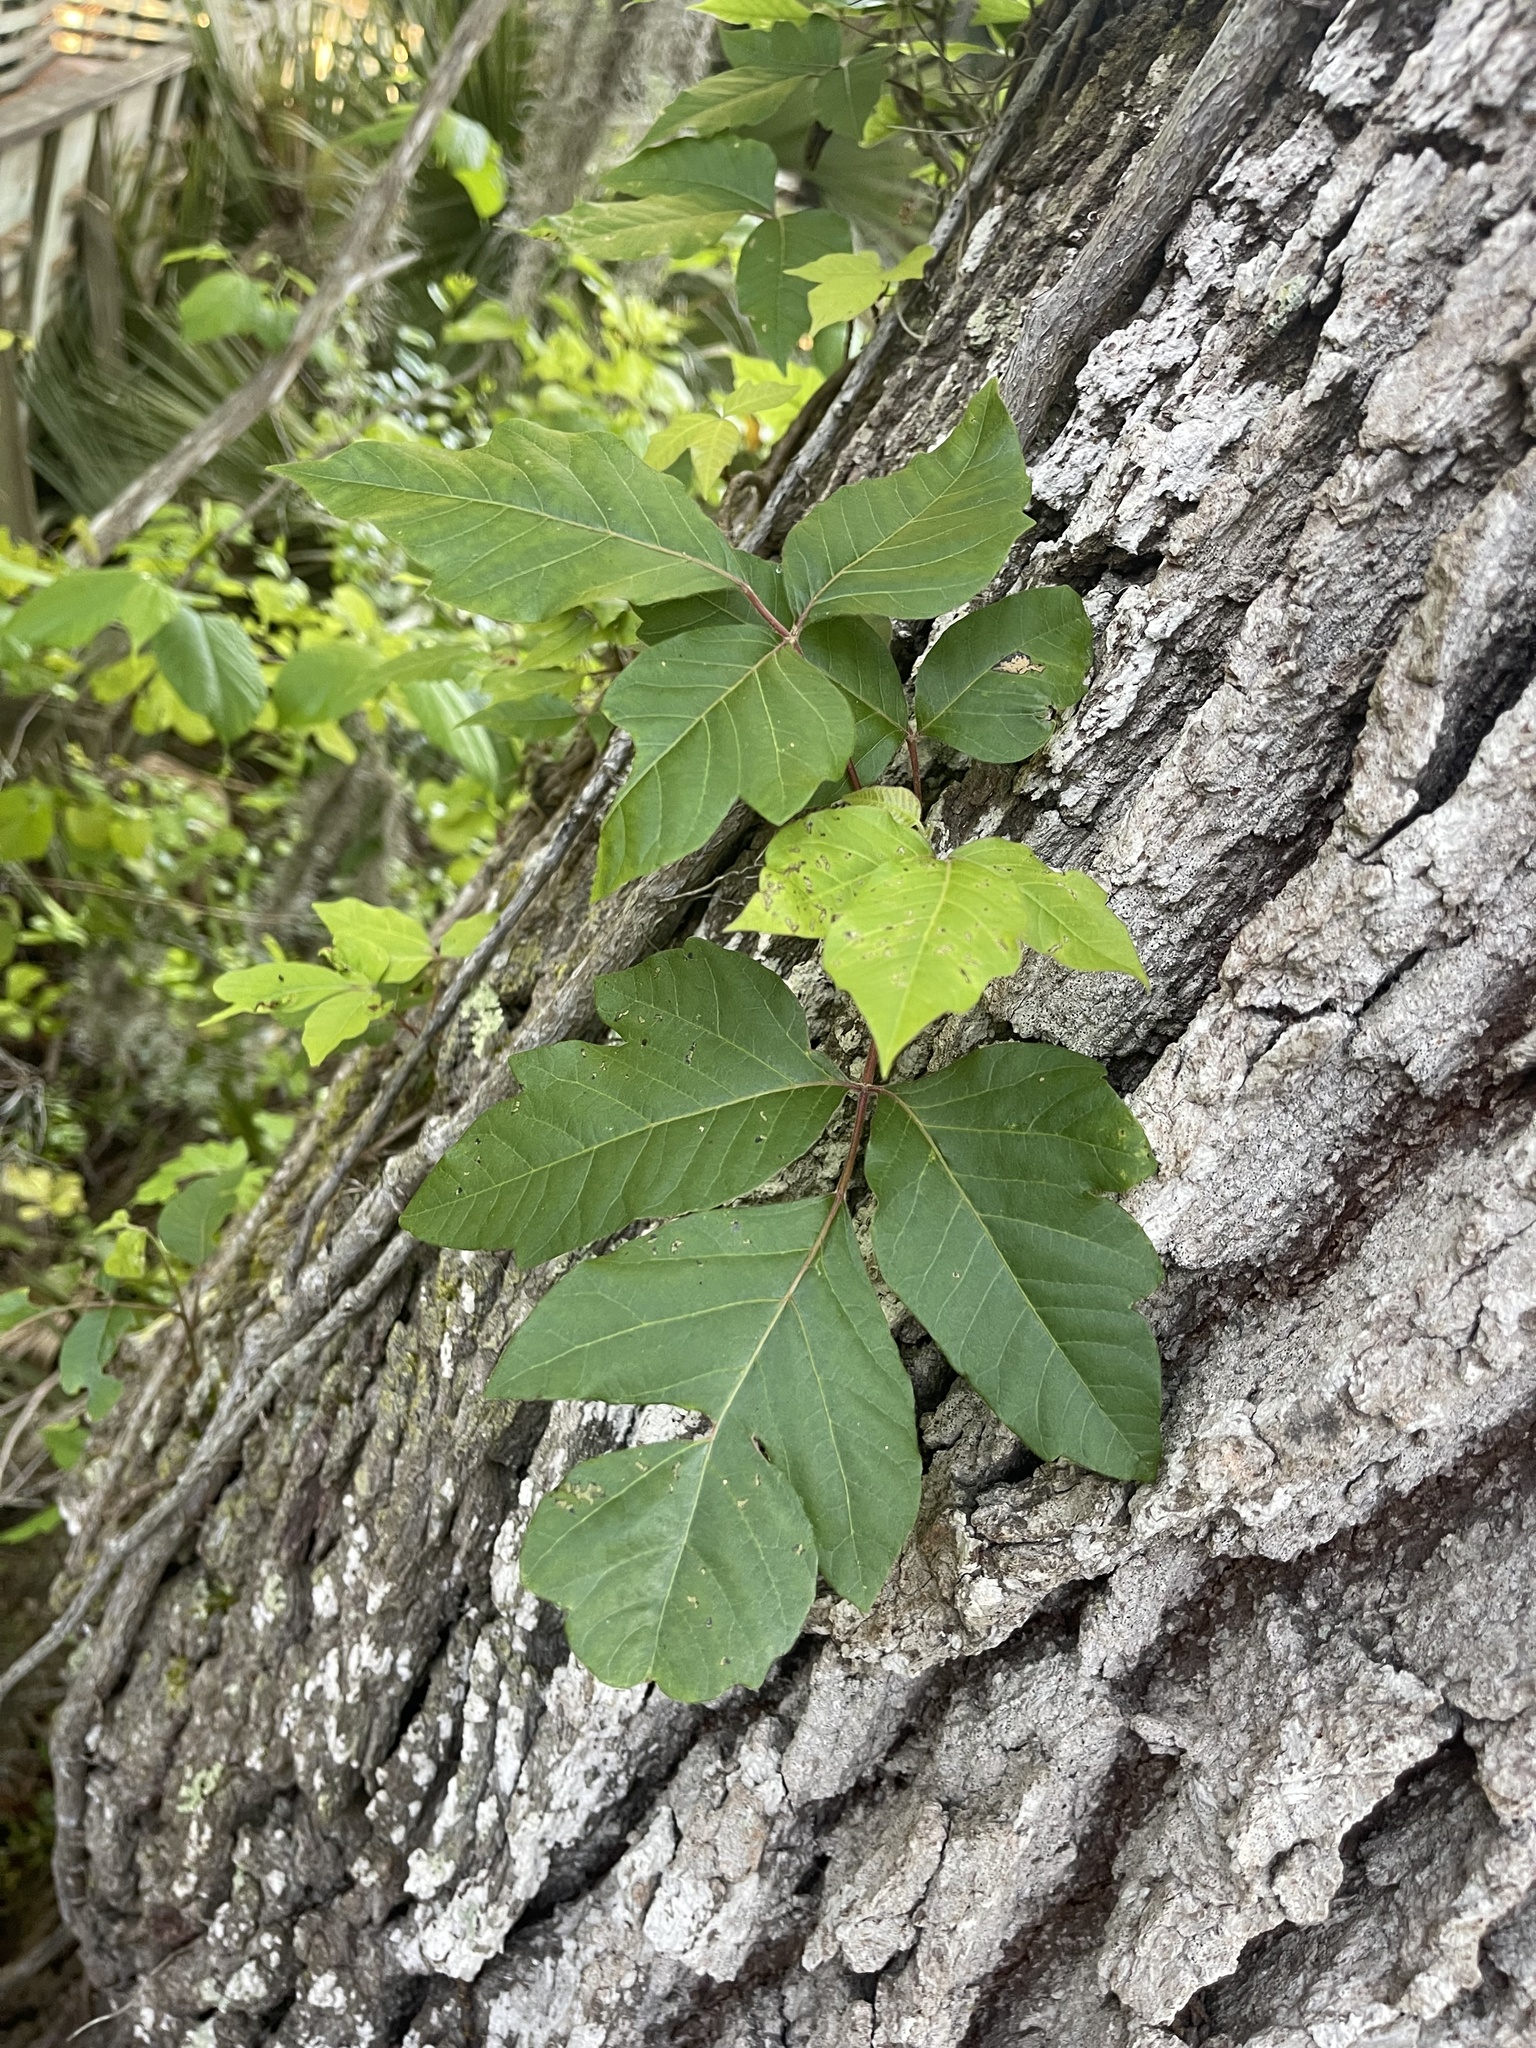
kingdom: Plantae
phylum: Tracheophyta
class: Magnoliopsida
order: Sapindales
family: Anacardiaceae
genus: Toxicodendron
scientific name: Toxicodendron radicans
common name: Poison ivy
